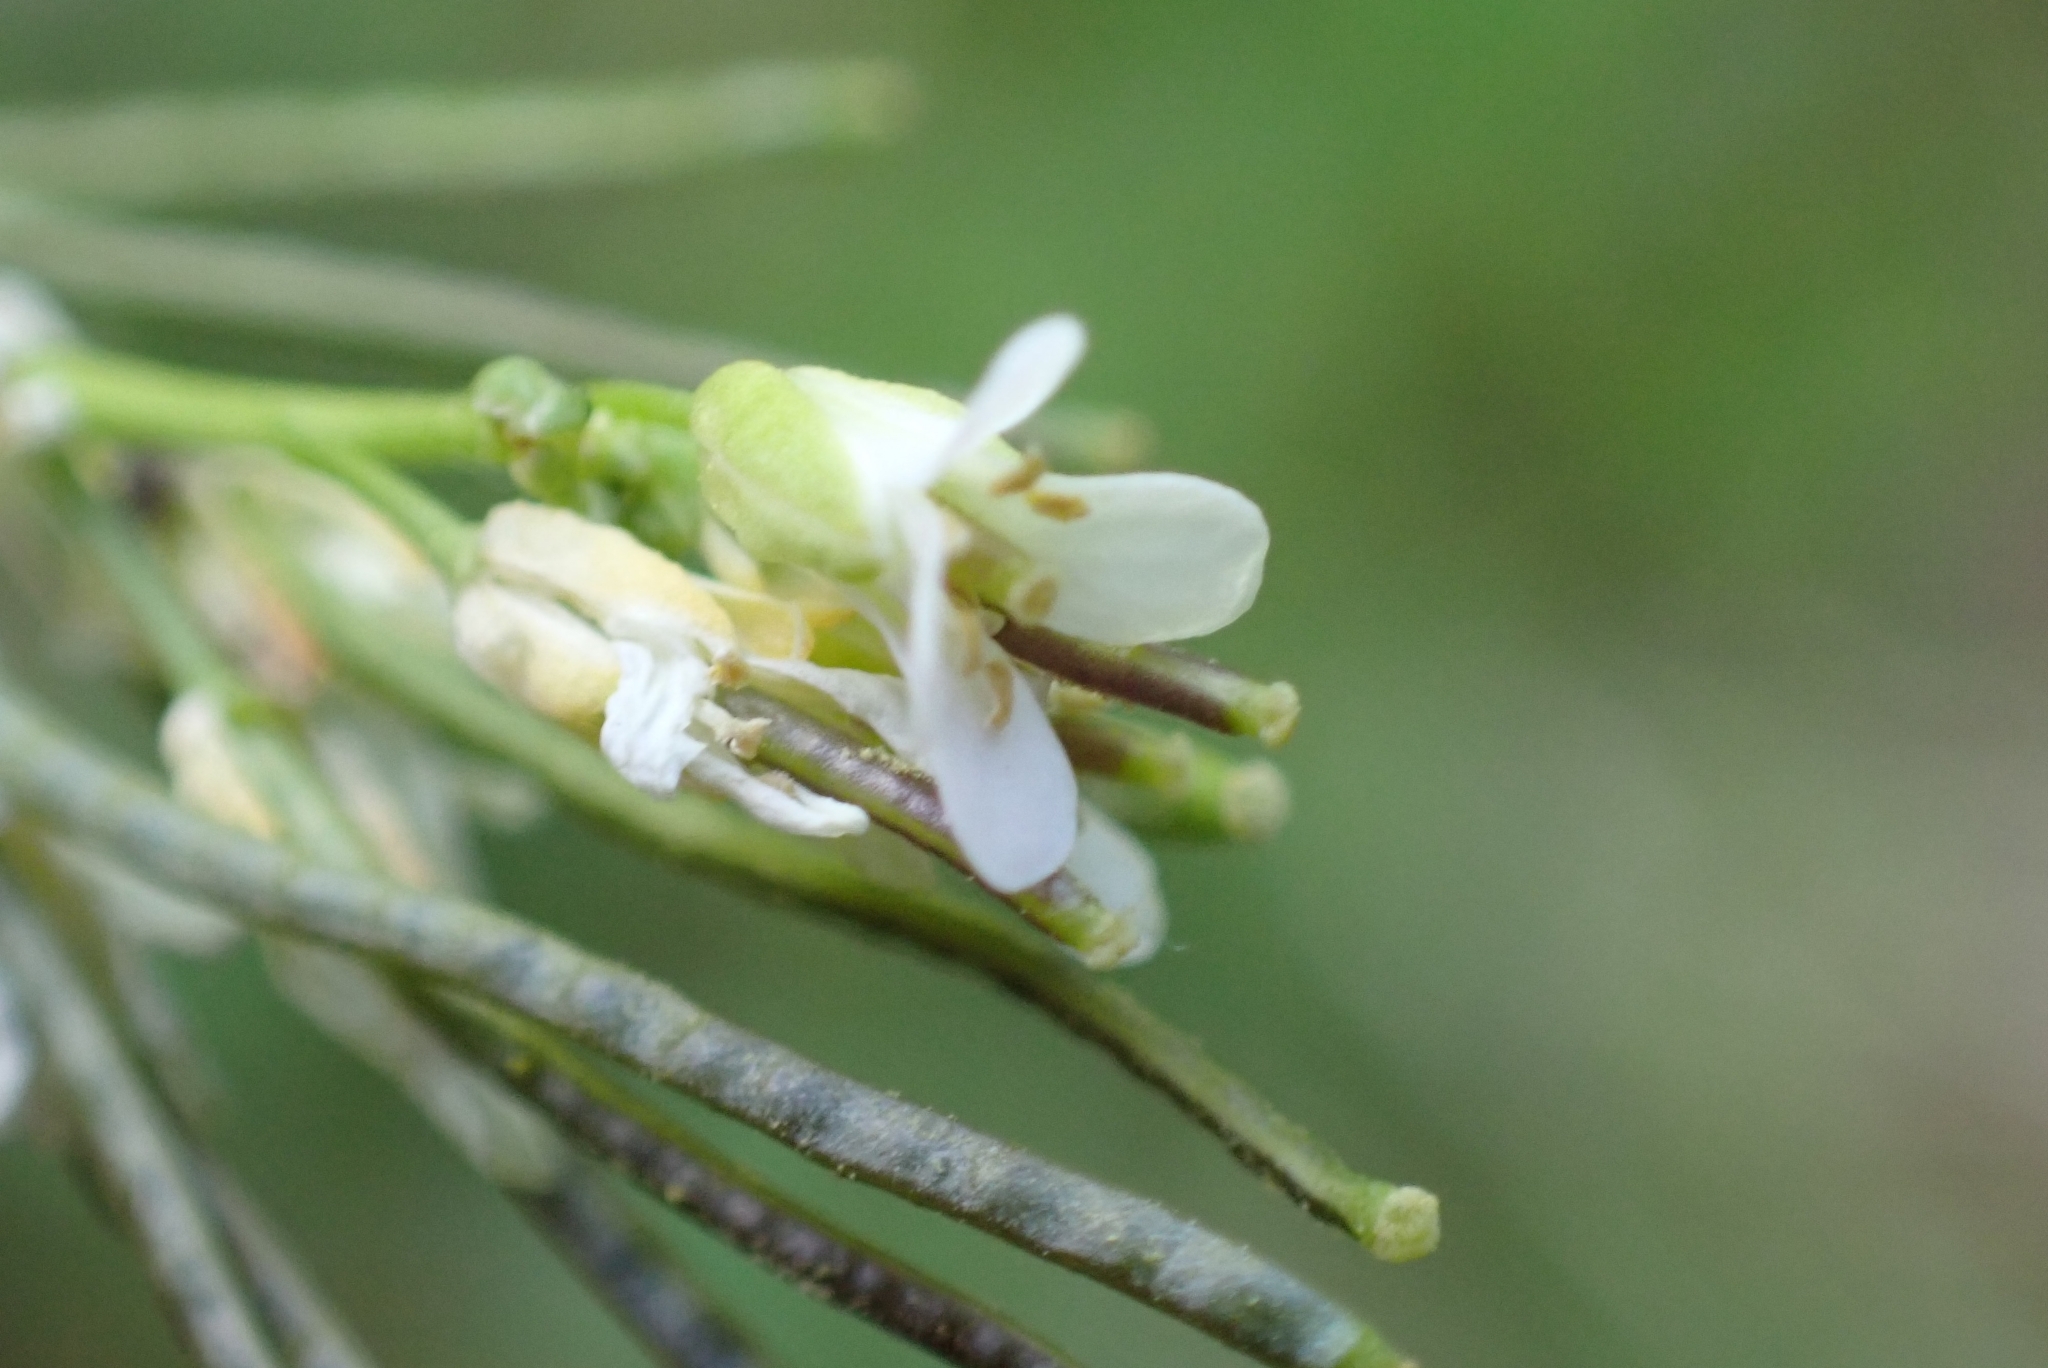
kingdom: Plantae
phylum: Tracheophyta
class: Magnoliopsida
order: Brassicales
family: Brassicaceae
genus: Arabis
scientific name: Arabis hirsuta
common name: Hairy rock-cress
